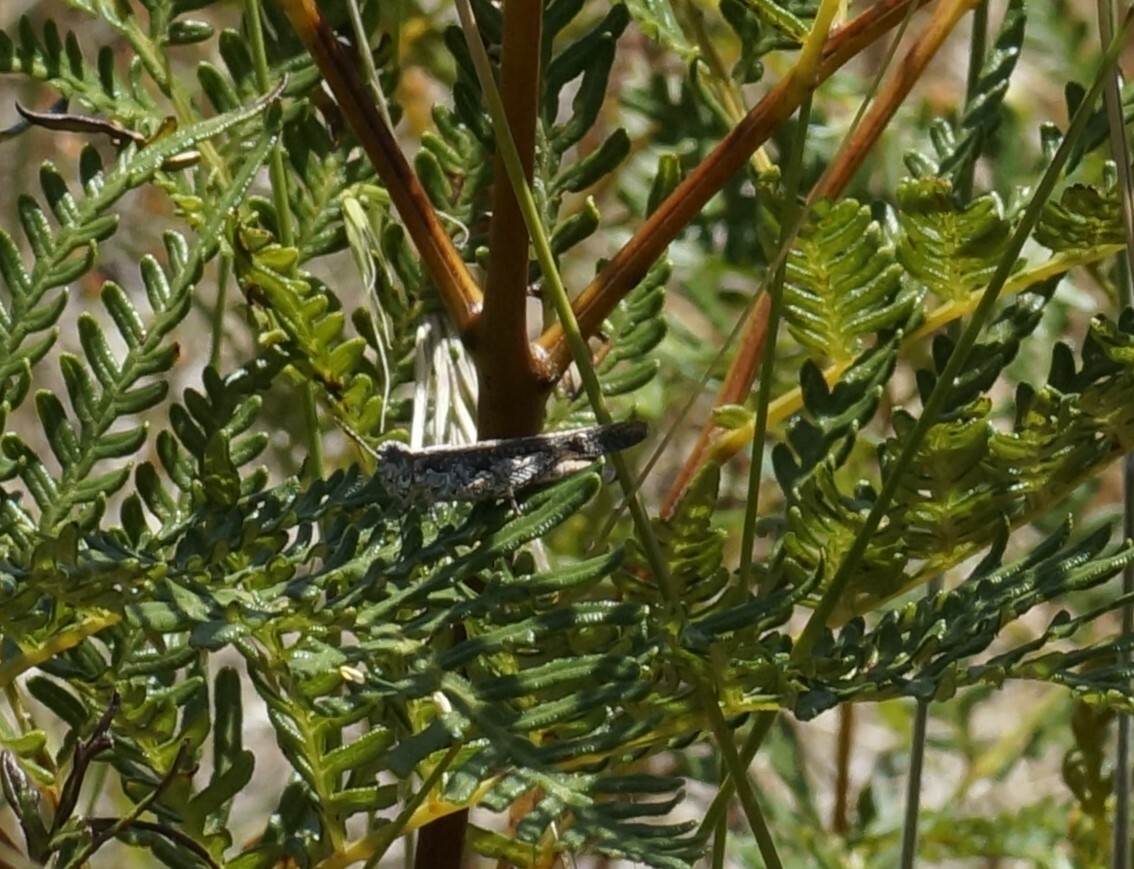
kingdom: Animalia
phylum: Arthropoda
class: Insecta
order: Orthoptera
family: Acrididae
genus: Pycnostictus
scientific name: Pycnostictus seriatus
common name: Common bandwing
